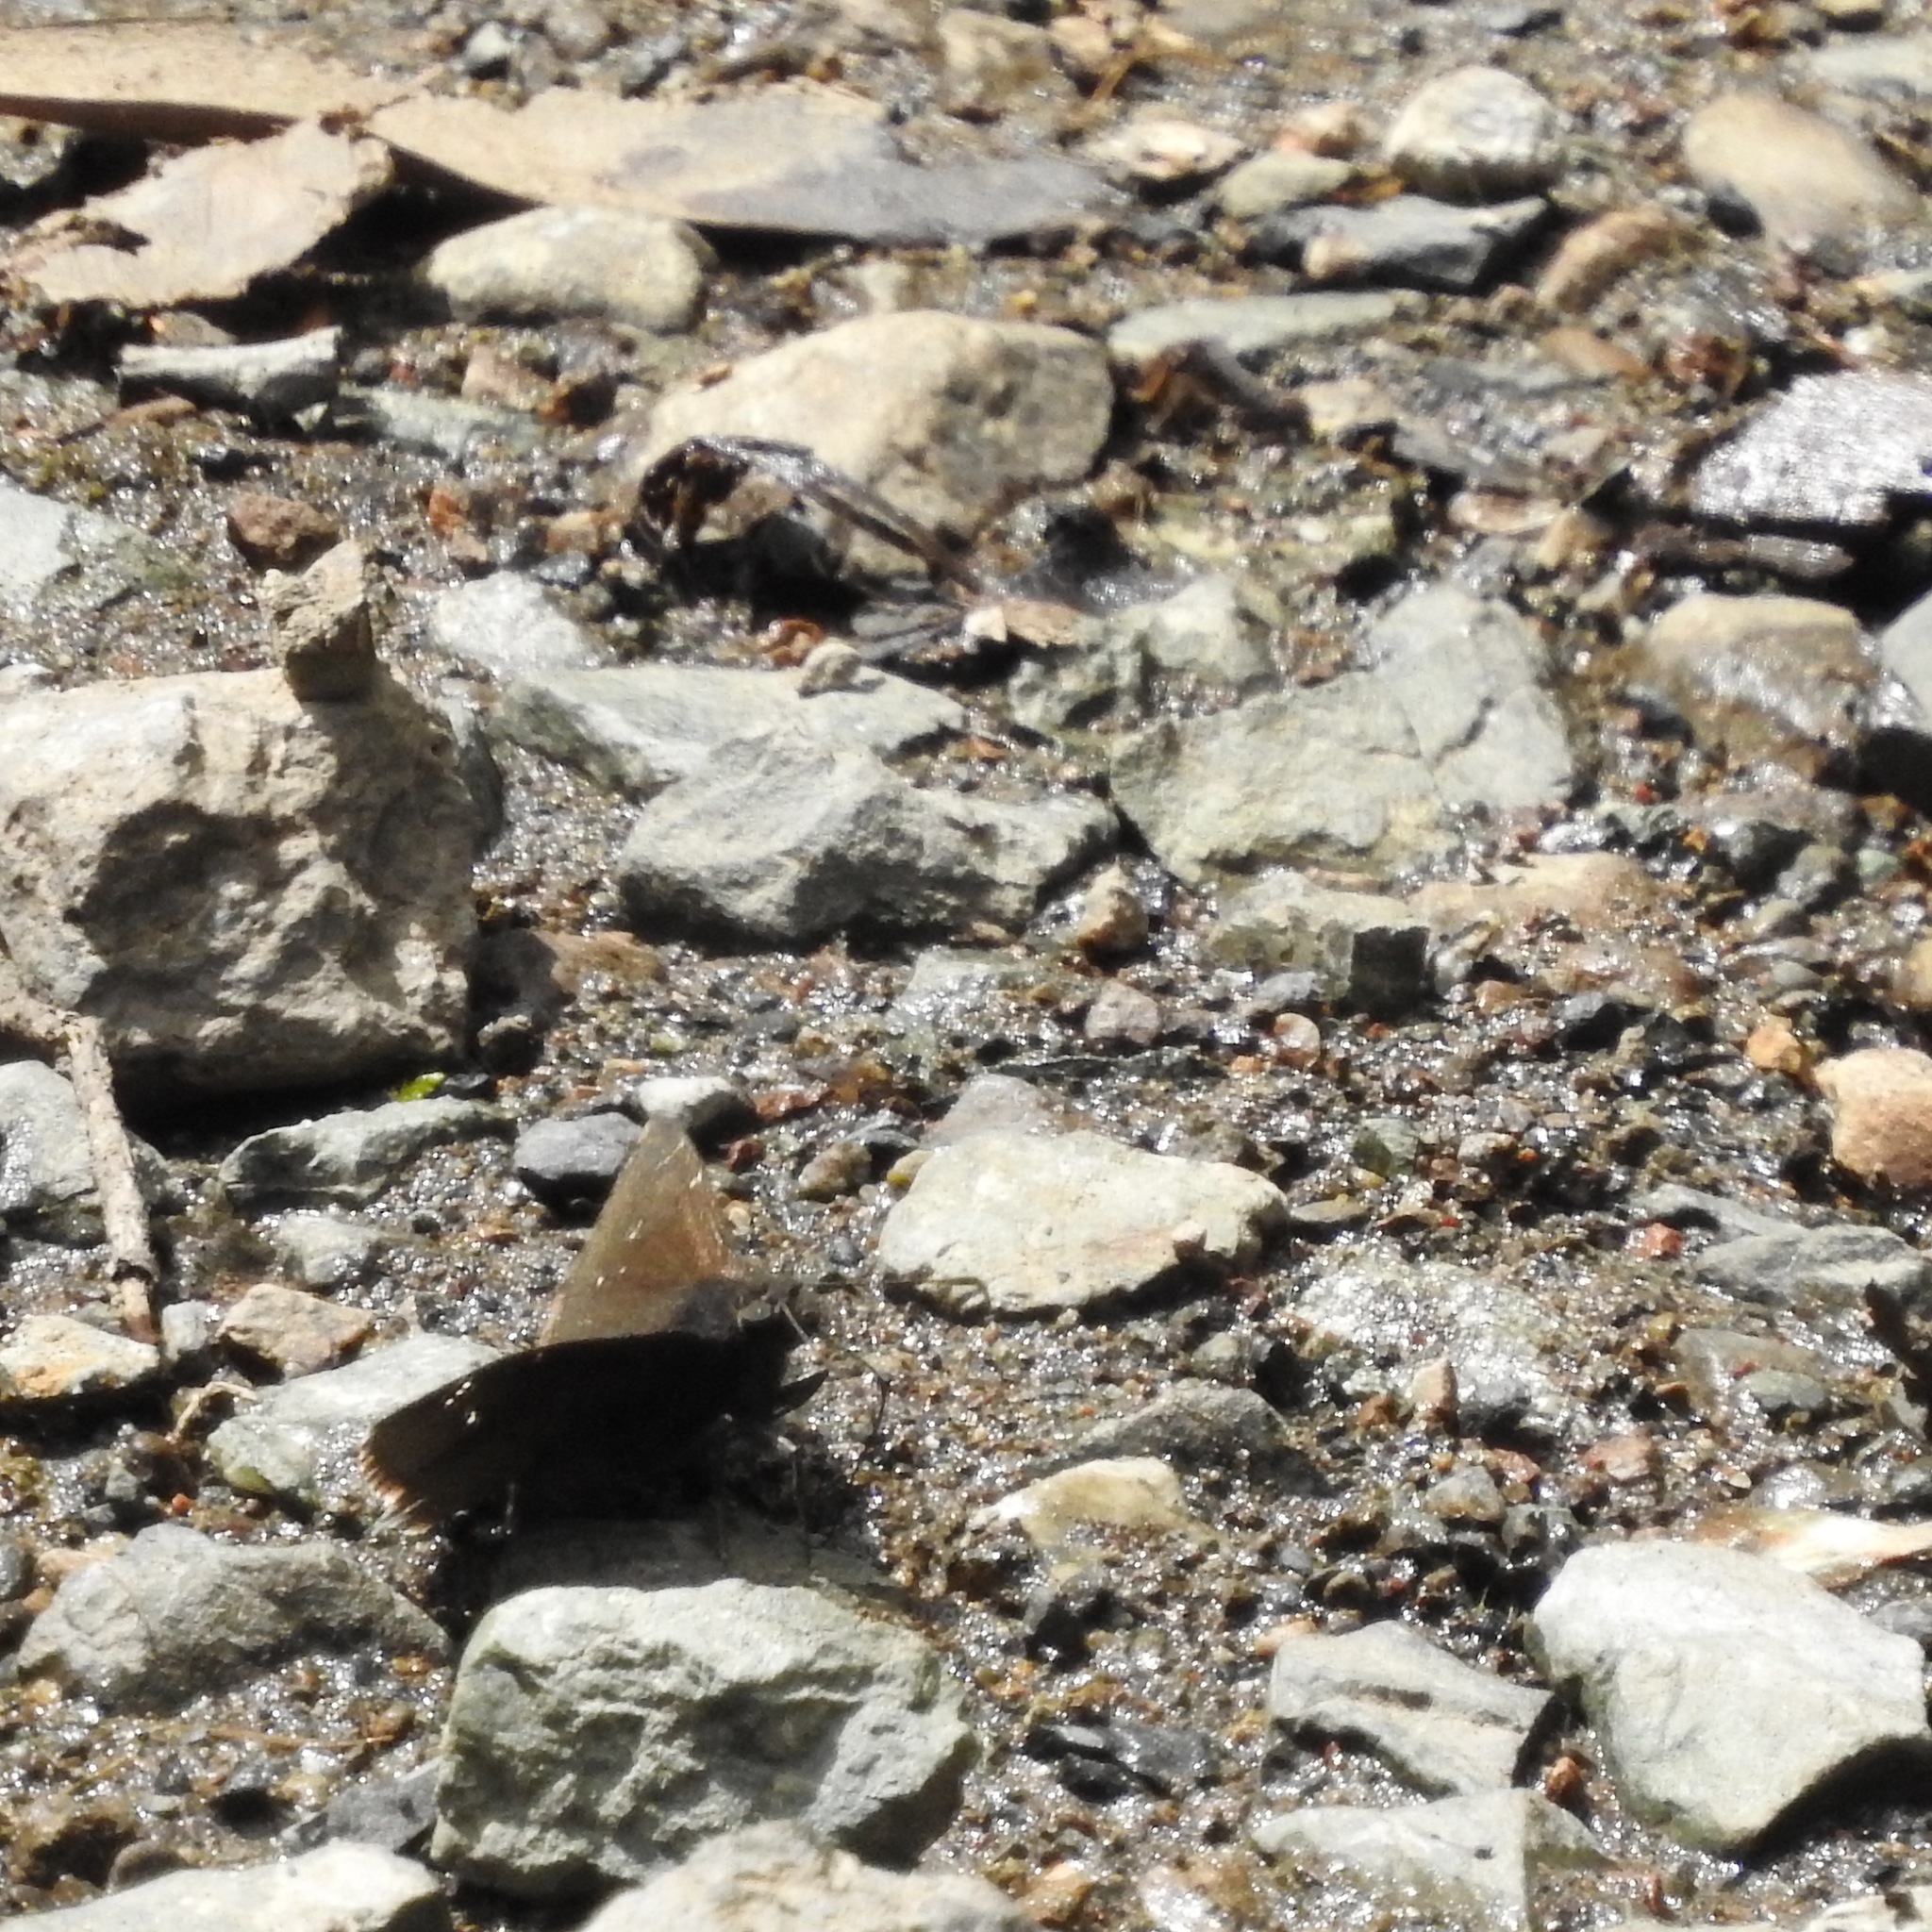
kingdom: Animalia
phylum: Arthropoda
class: Insecta
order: Lepidoptera
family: Hesperiidae
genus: Thorybes
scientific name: Thorybes pylades
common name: Northern cloudywing
